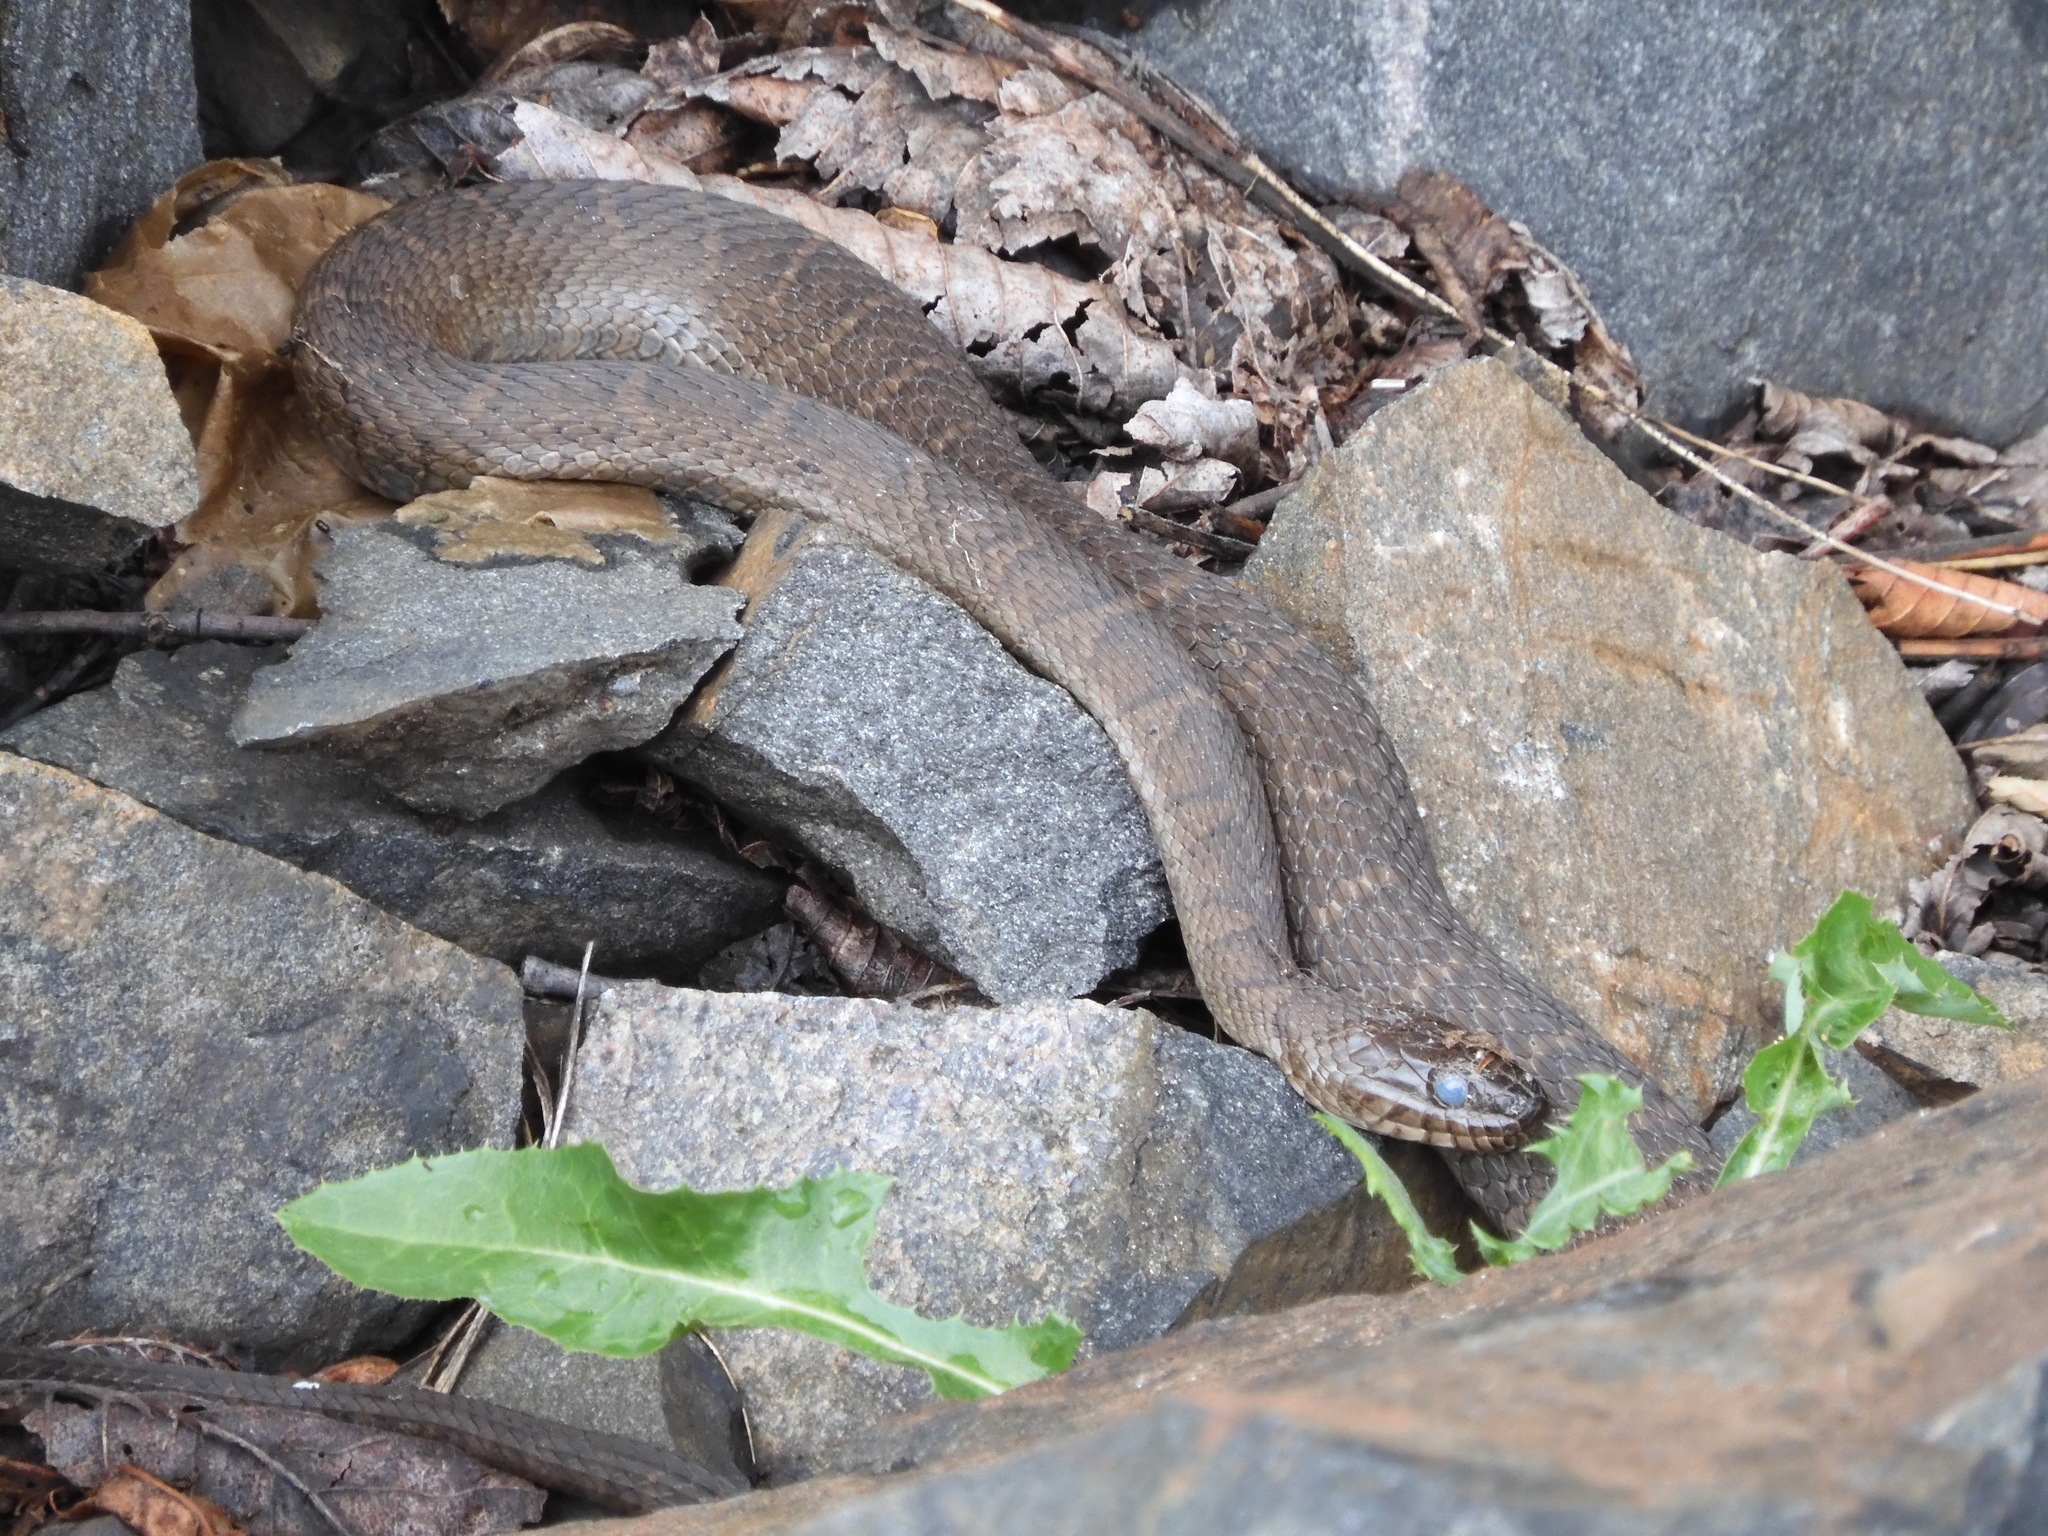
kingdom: Animalia
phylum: Chordata
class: Squamata
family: Colubridae
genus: Nerodia
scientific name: Nerodia sipedon
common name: Northern water snake
